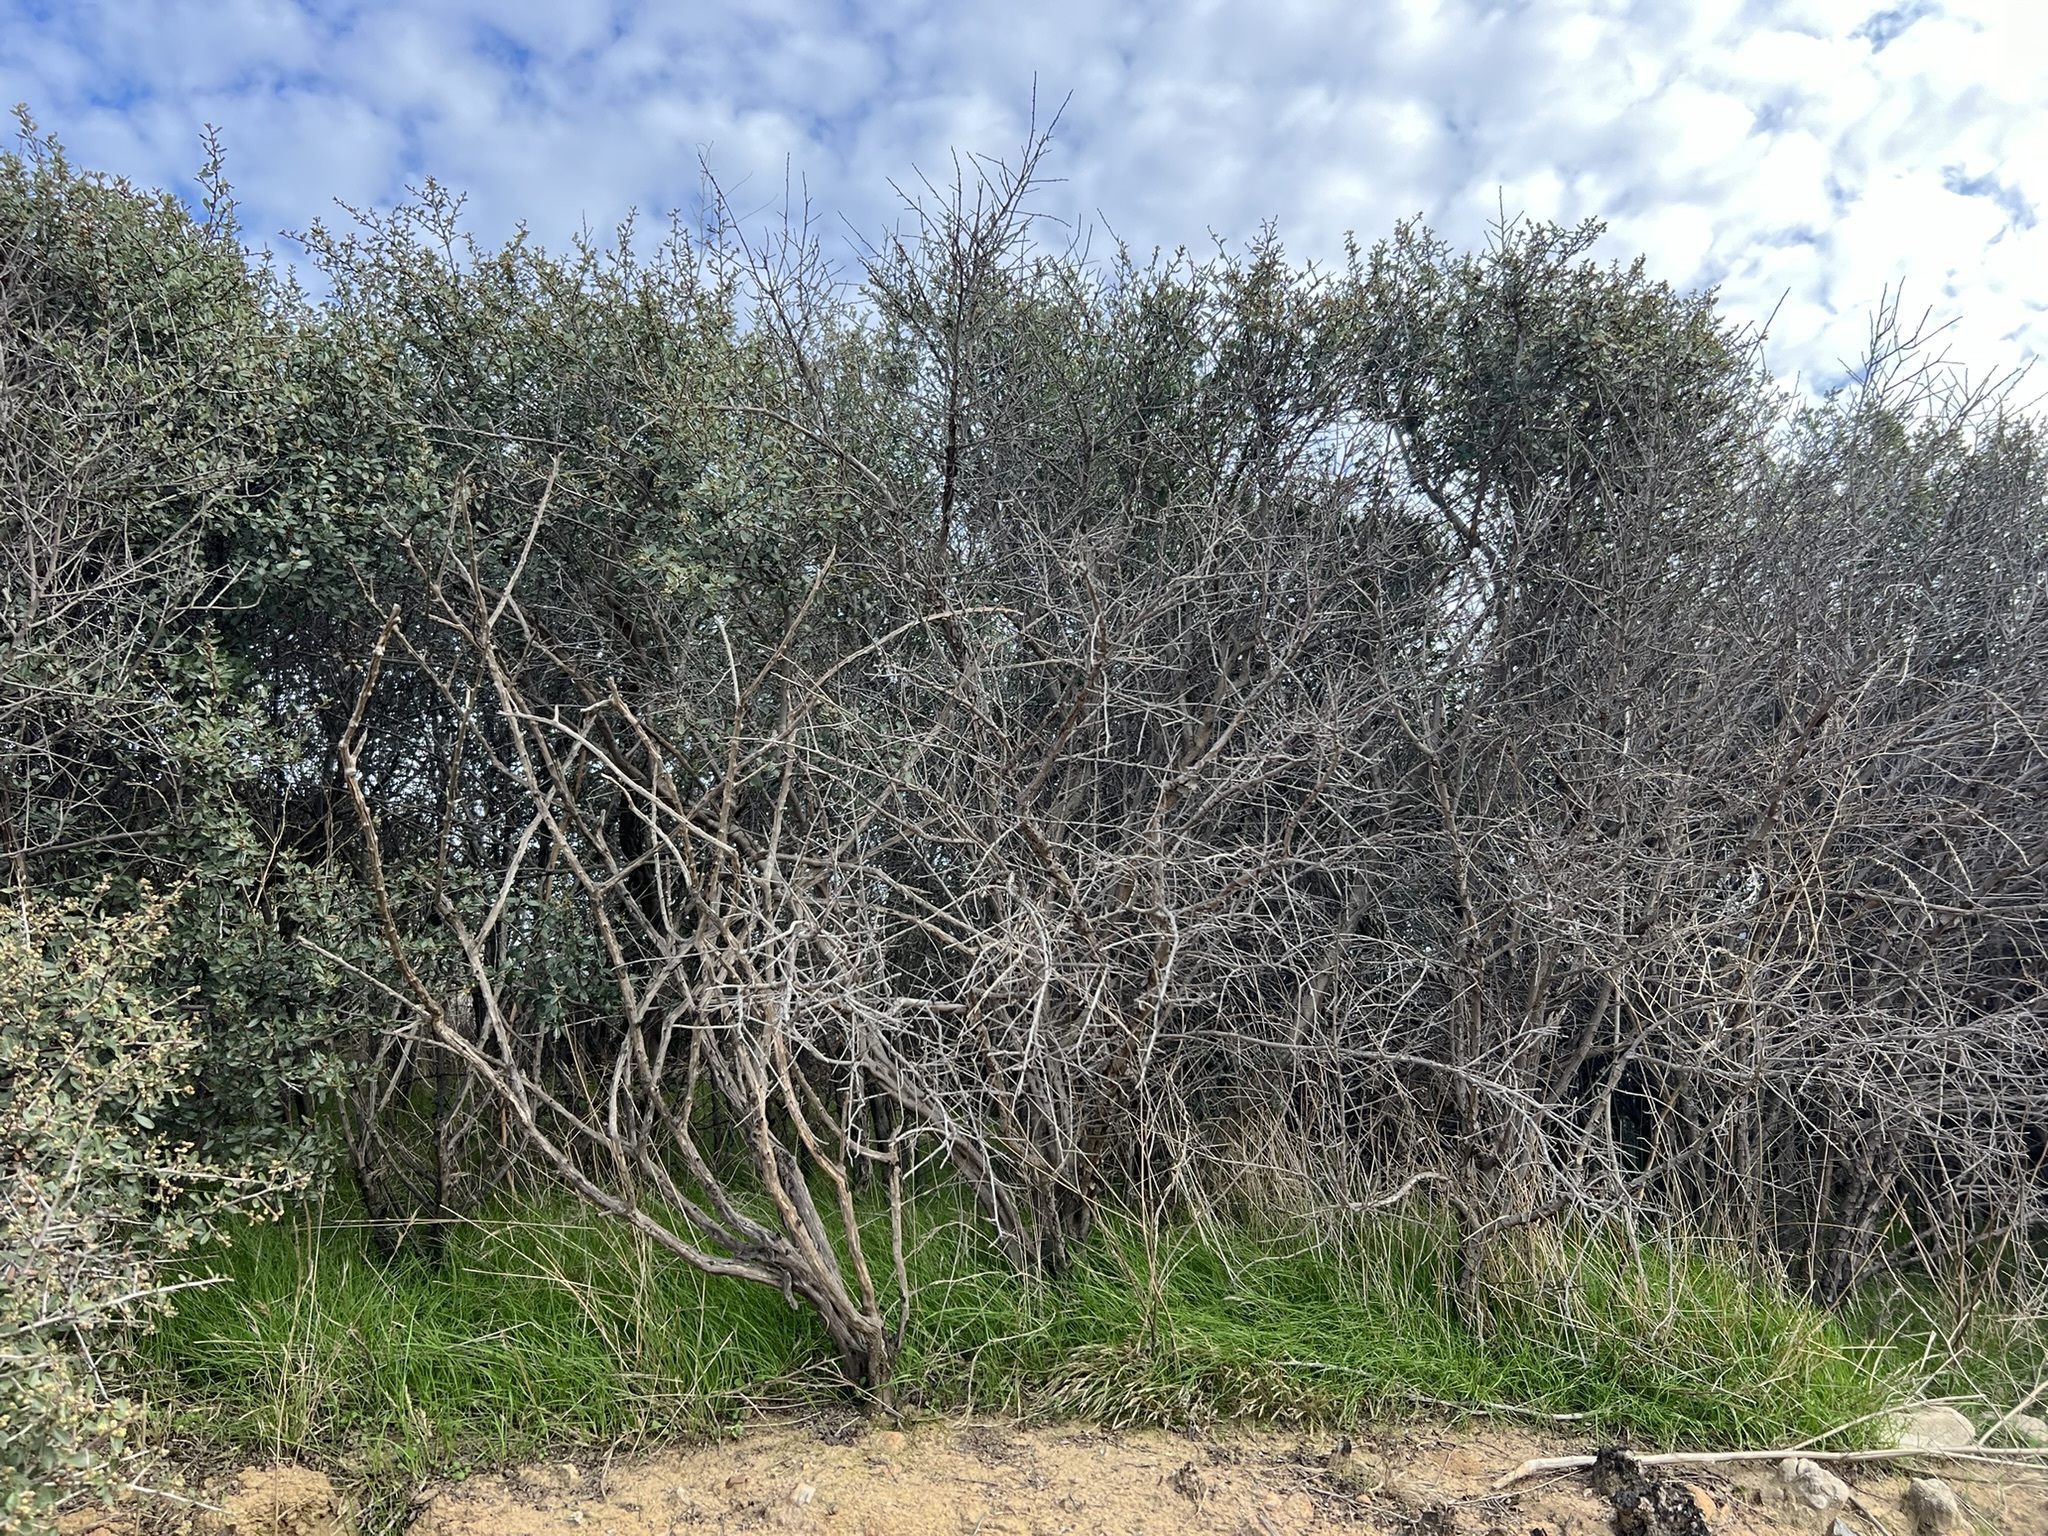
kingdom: Plantae
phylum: Tracheophyta
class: Magnoliopsida
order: Rosales
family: Rhamnaceae
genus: Ceanothus
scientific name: Ceanothus megacarpus
